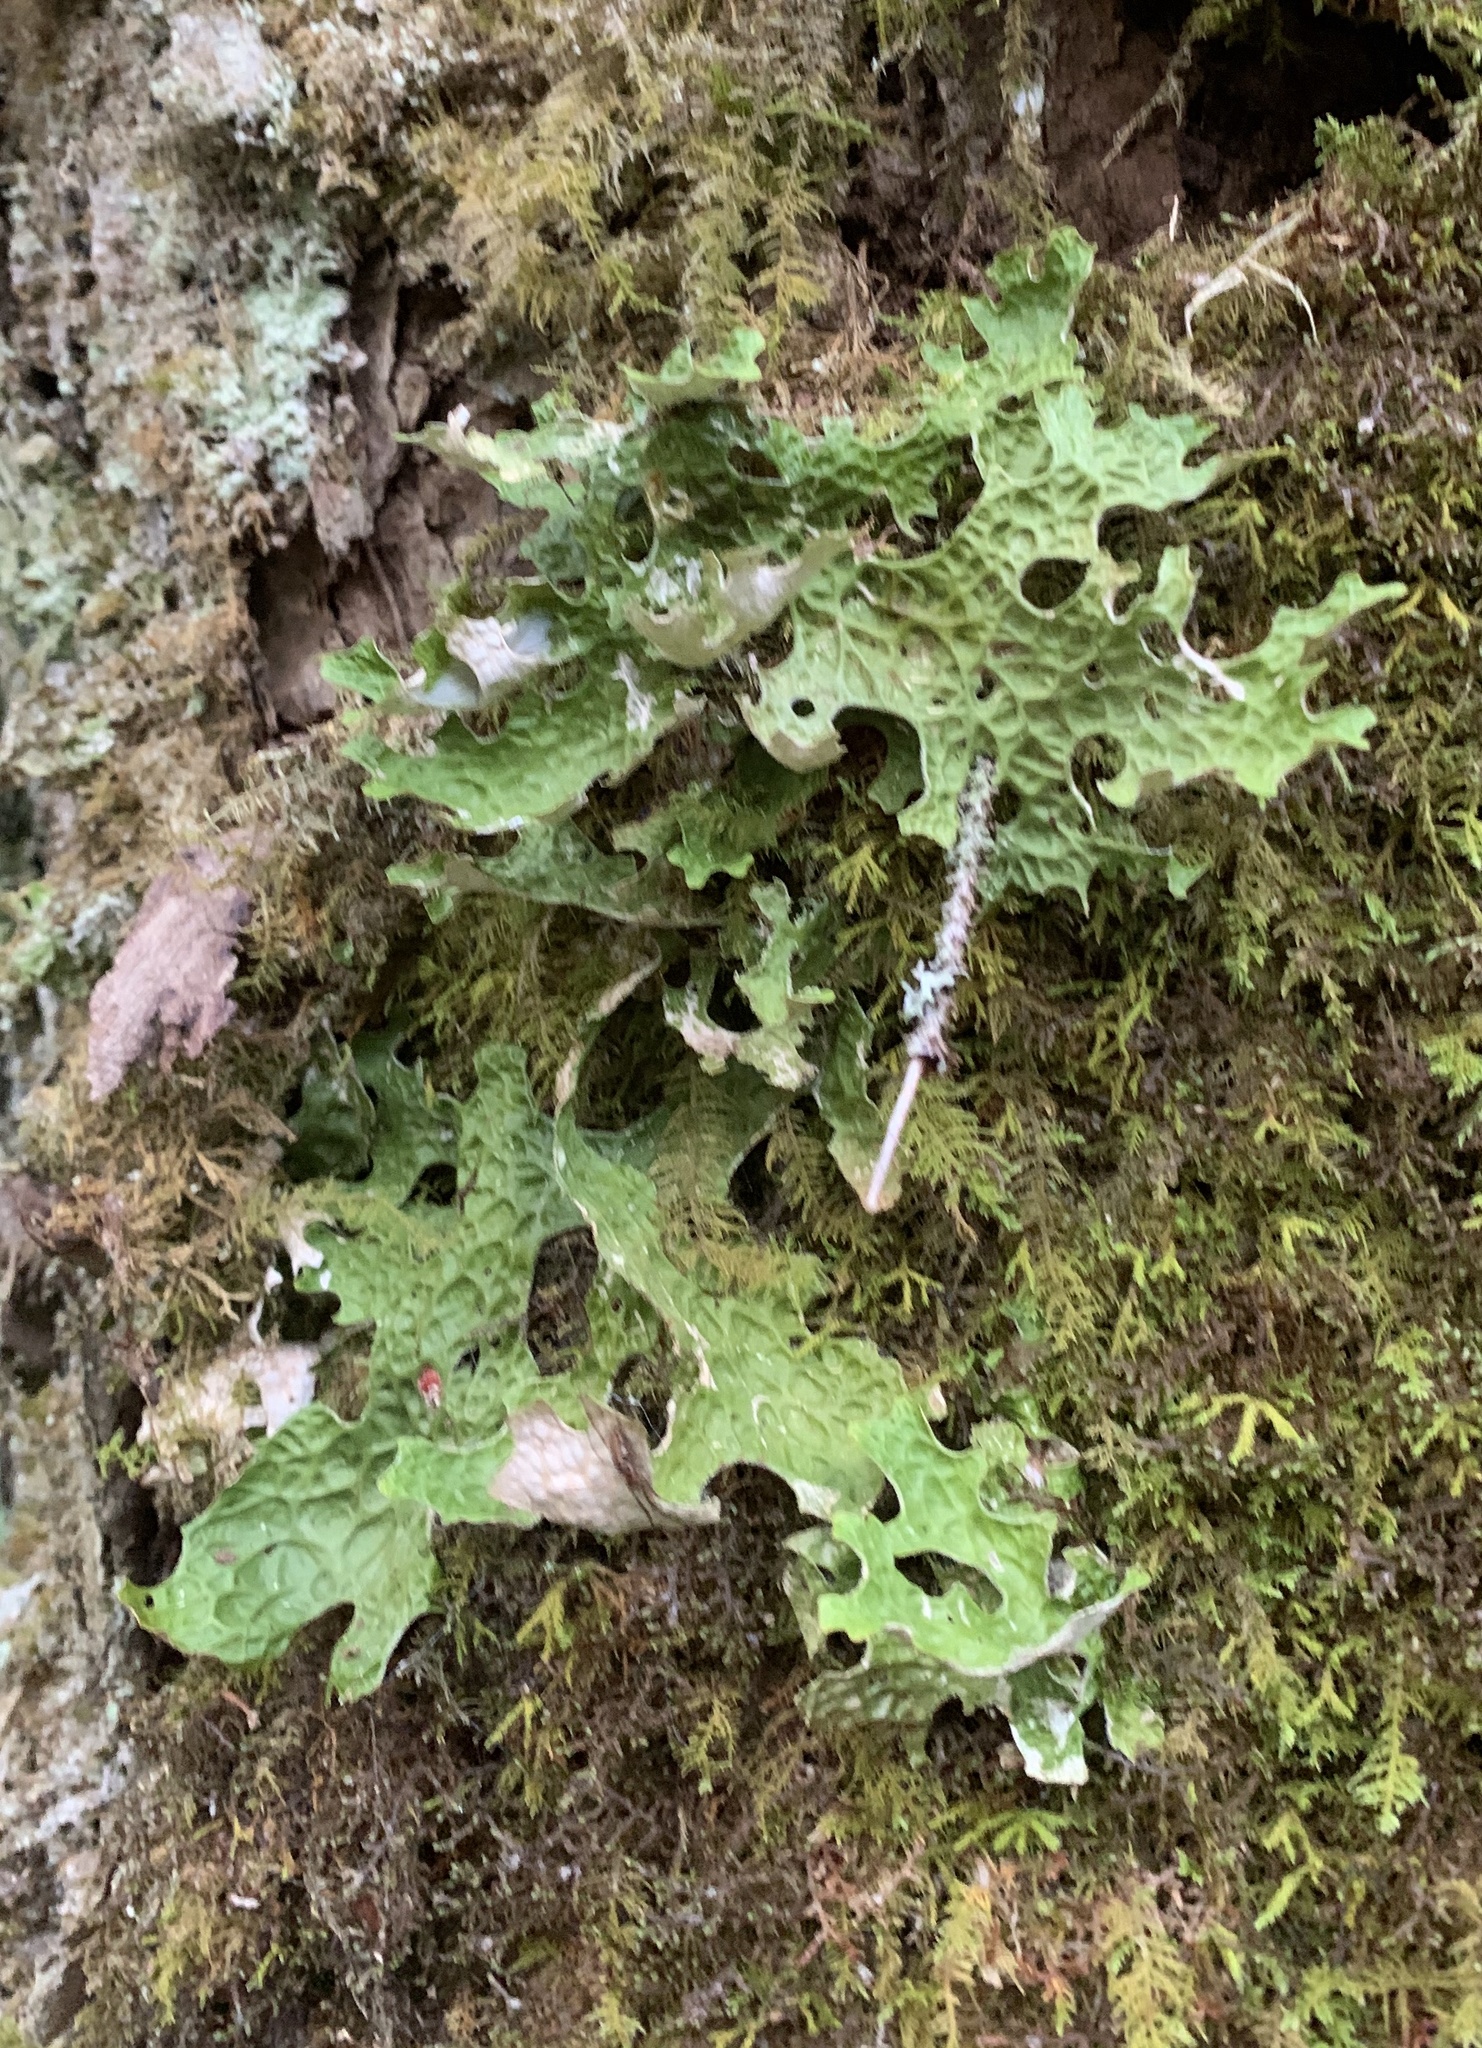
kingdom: Fungi
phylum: Ascomycota
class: Lecanoromycetes
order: Peltigerales
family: Lobariaceae
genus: Lobaria
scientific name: Lobaria pulmonaria
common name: Lungwort
